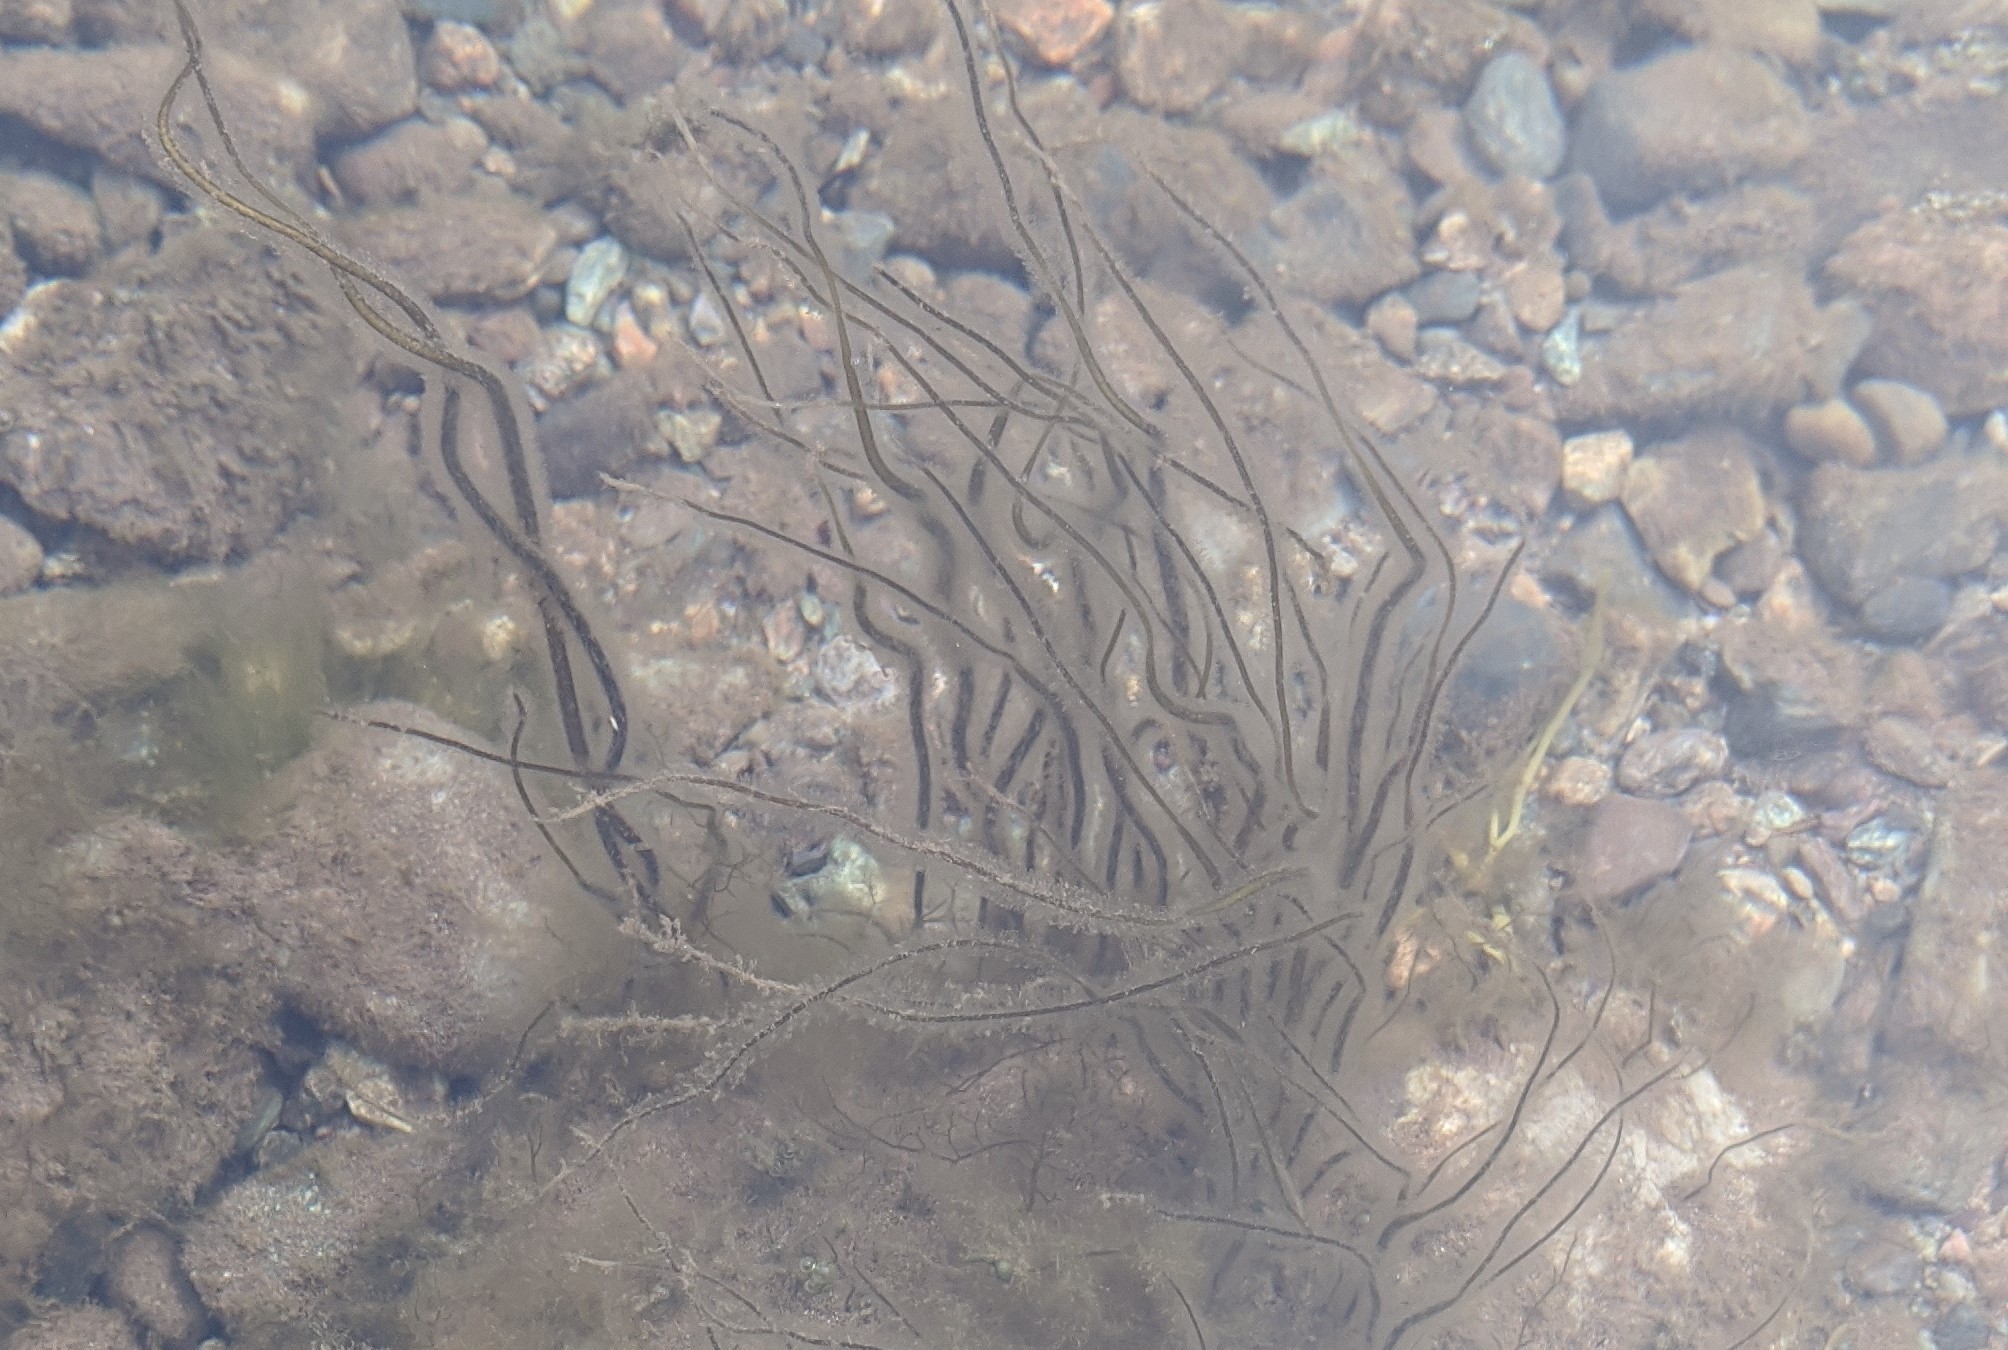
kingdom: Chromista
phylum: Ochrophyta
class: Phaeophyceae
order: Laminariales
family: Chordaceae
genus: Chorda
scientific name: Chorda filum
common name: Mermaid's tresses
